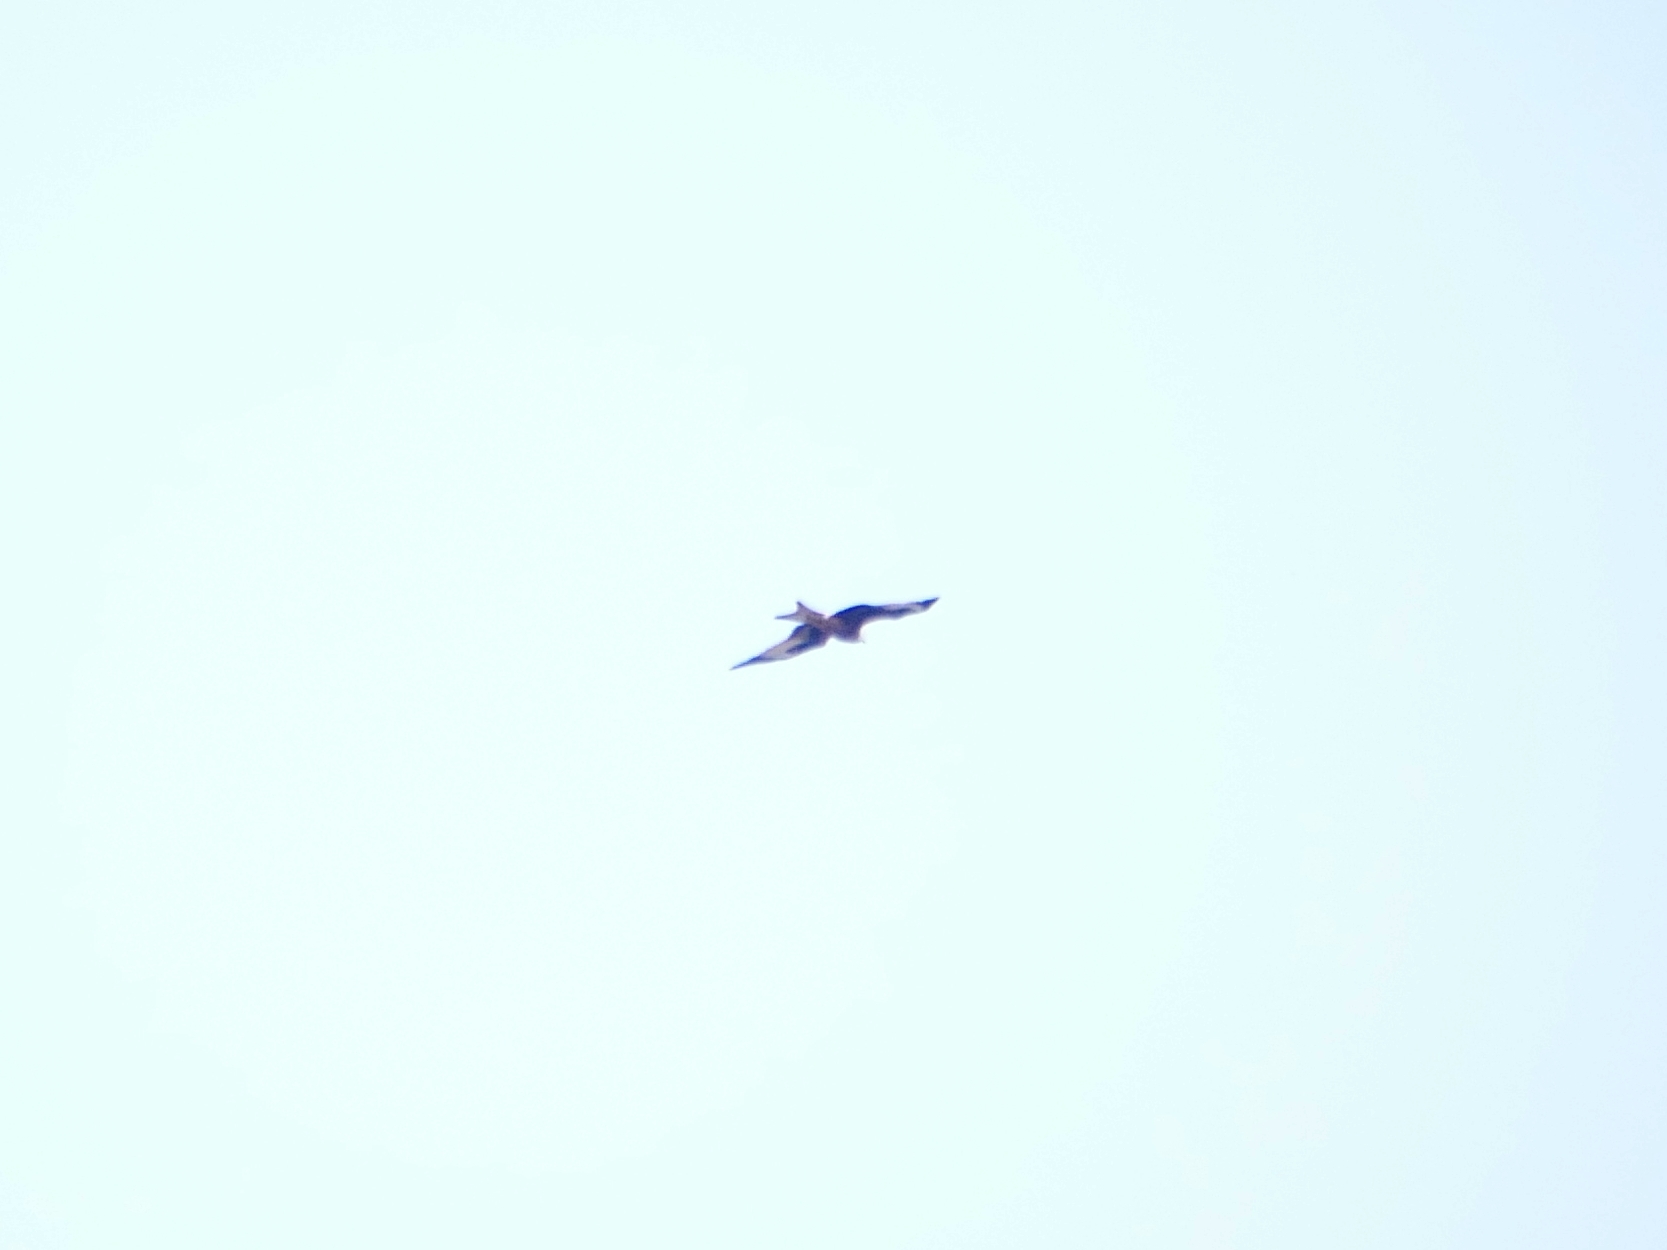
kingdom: Animalia
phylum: Chordata
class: Aves
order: Accipitriformes
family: Accipitridae
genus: Milvus
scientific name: Milvus milvus
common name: Red kite
